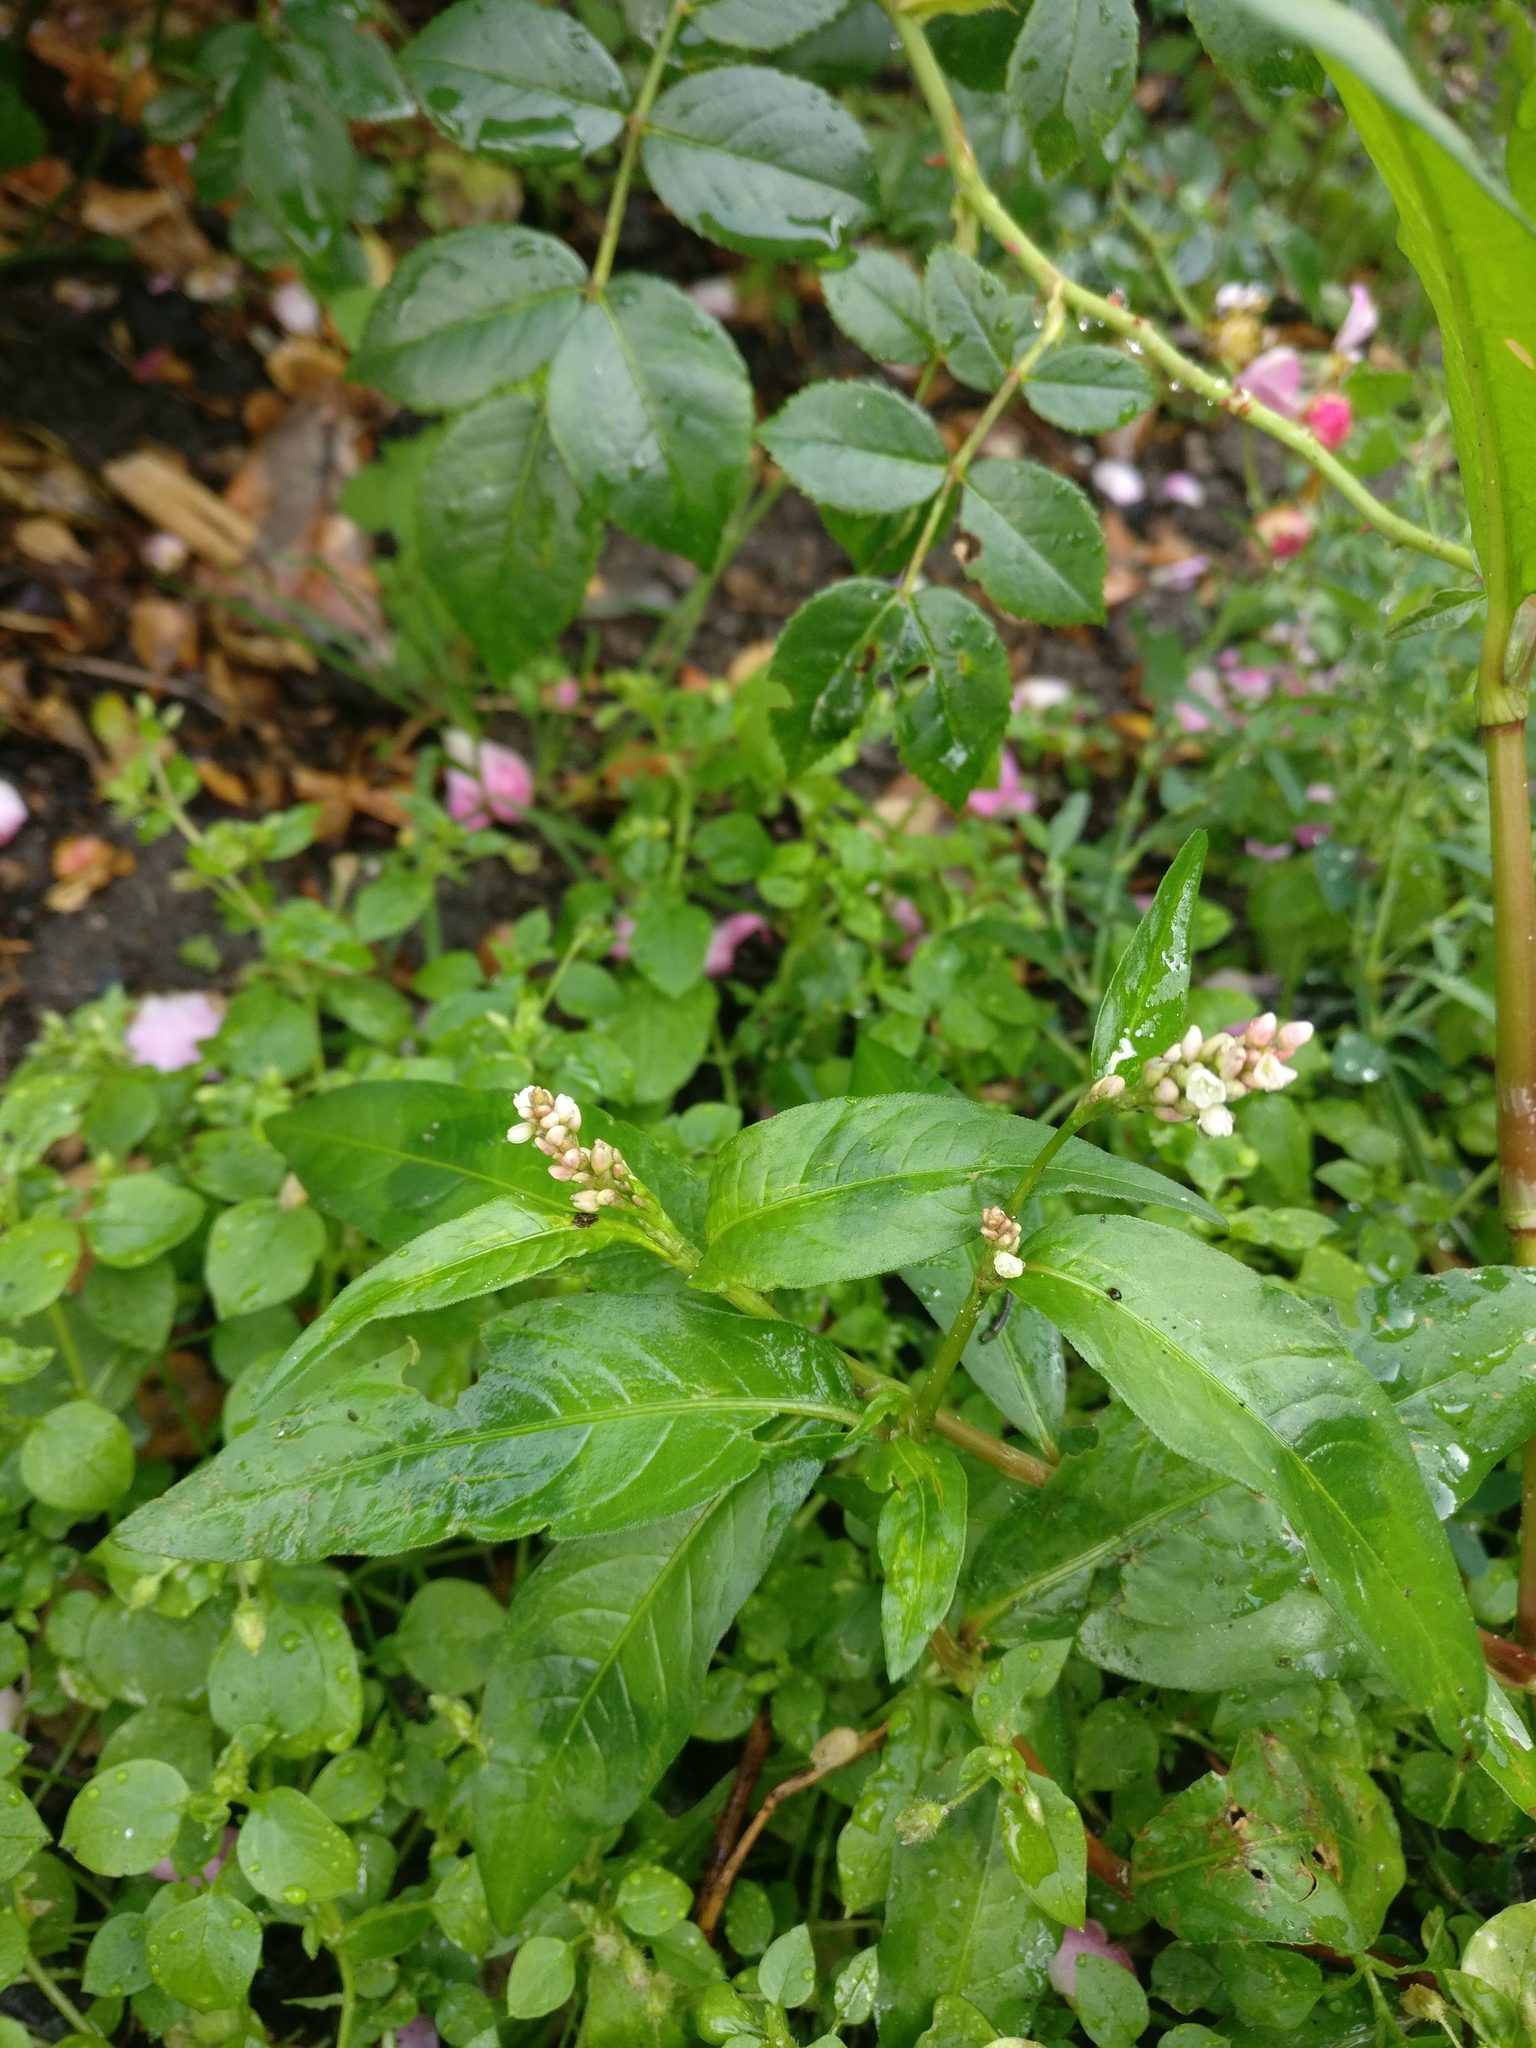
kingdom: Plantae
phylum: Tracheophyta
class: Magnoliopsida
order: Caryophyllales
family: Polygonaceae
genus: Persicaria
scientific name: Persicaria maculosa
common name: Redshank
